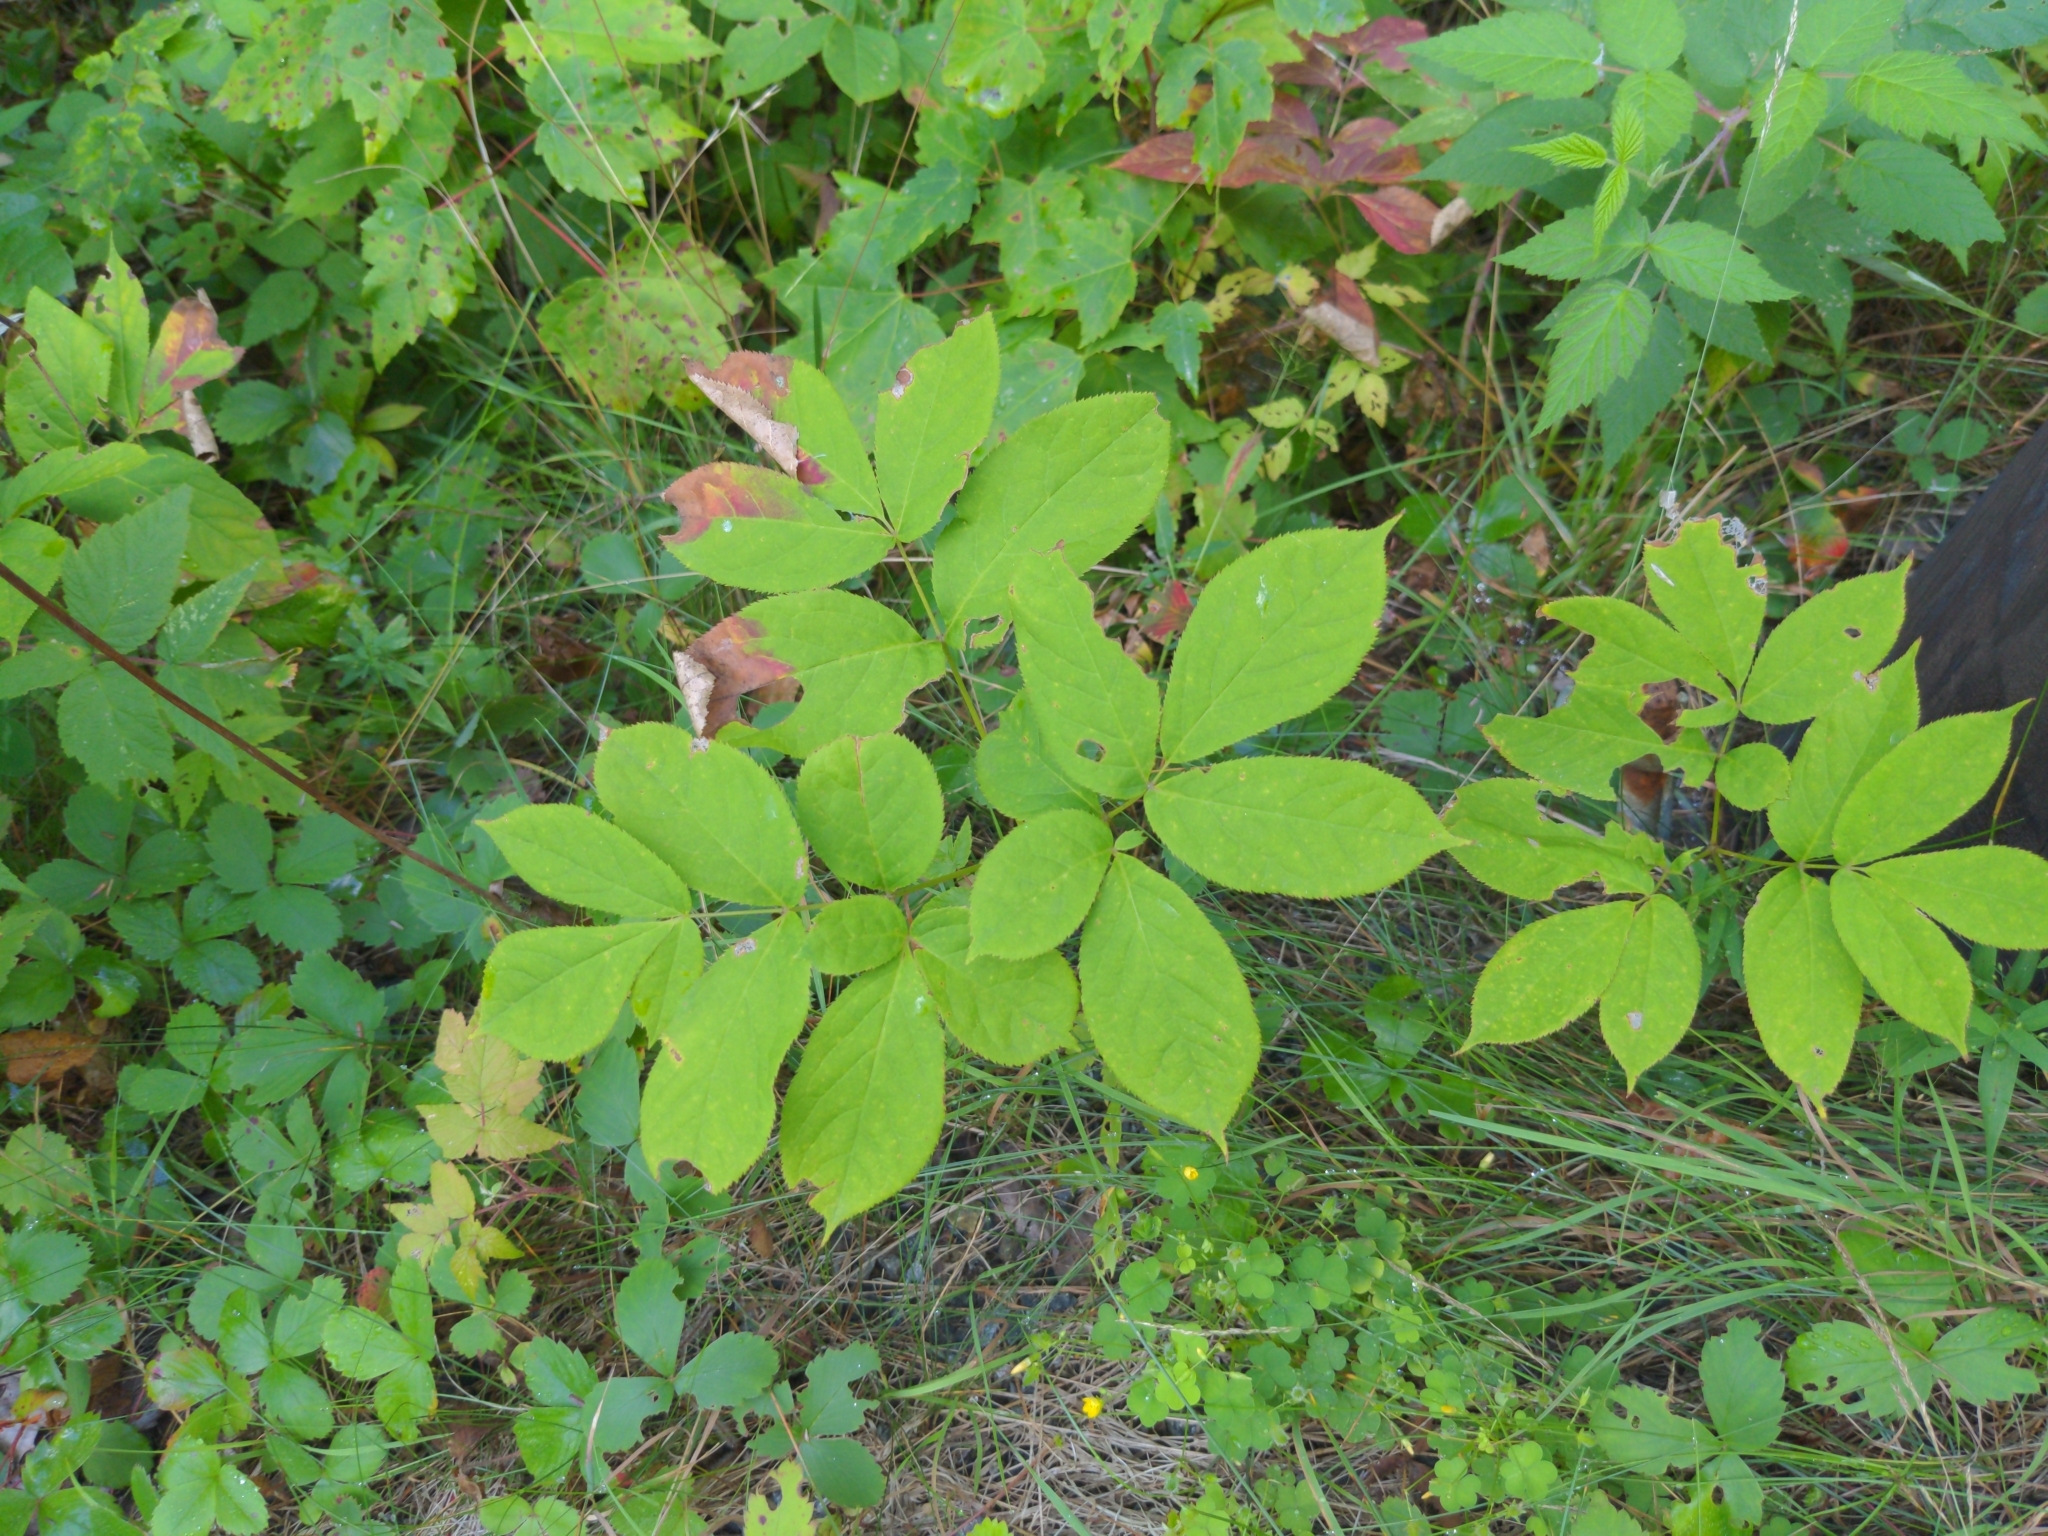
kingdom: Plantae
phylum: Tracheophyta
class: Magnoliopsida
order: Apiales
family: Araliaceae
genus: Aralia
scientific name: Aralia nudicaulis
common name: Wild sarsaparilla
